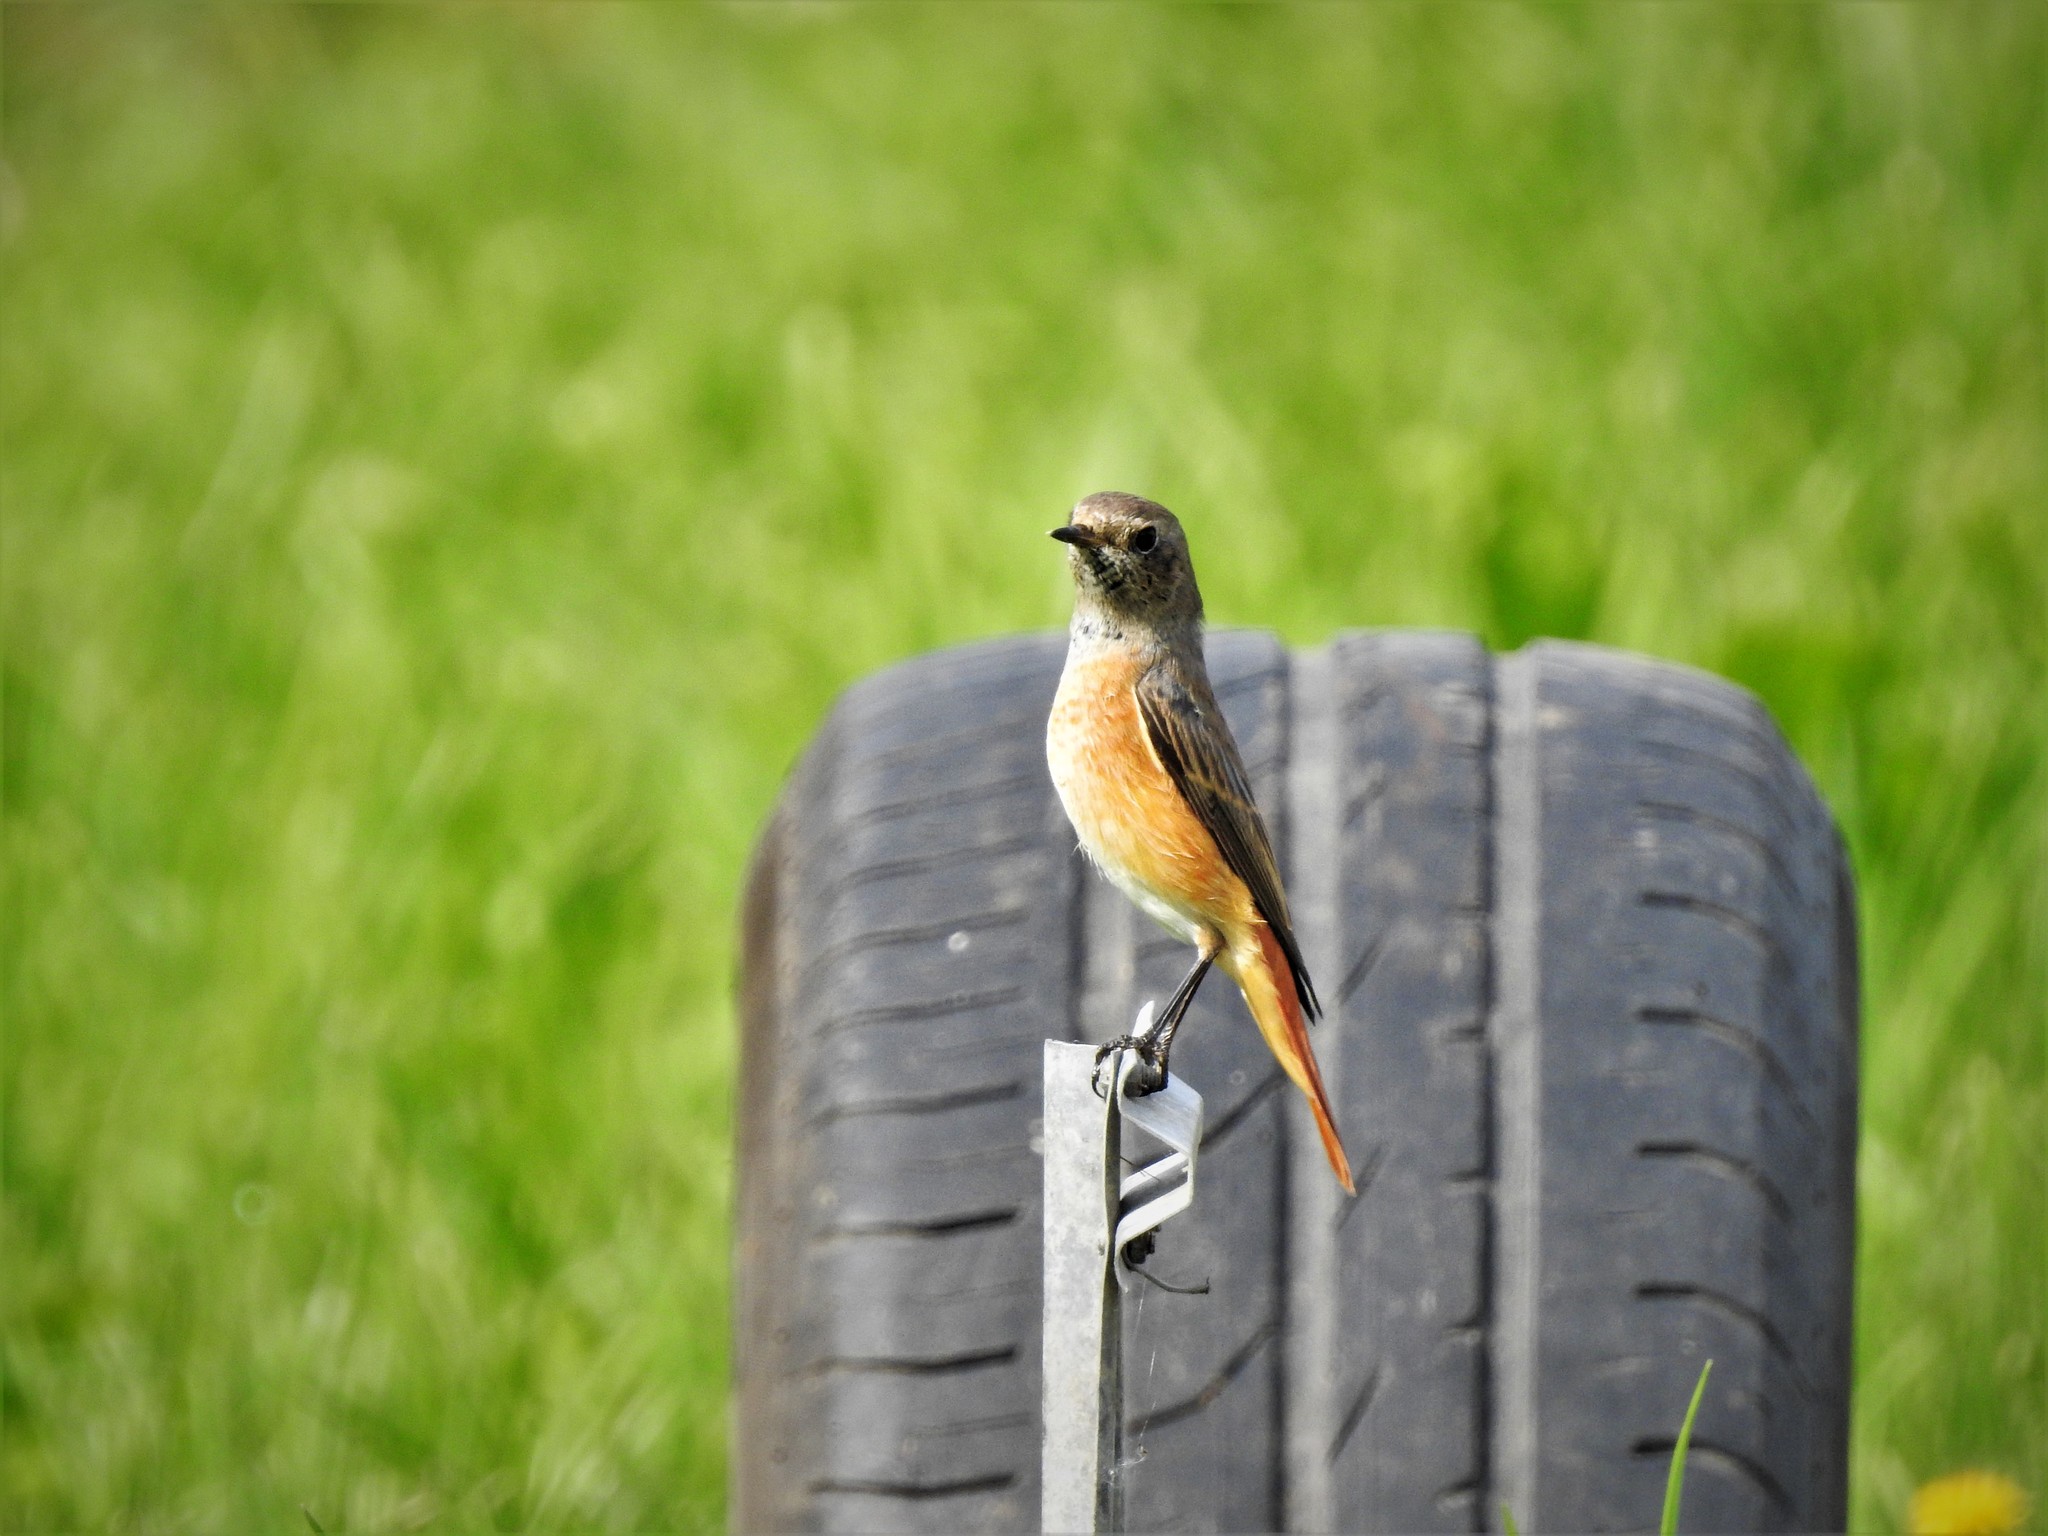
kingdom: Animalia
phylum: Chordata
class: Aves
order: Passeriformes
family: Muscicapidae
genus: Phoenicurus
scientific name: Phoenicurus phoenicurus
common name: Common redstart
